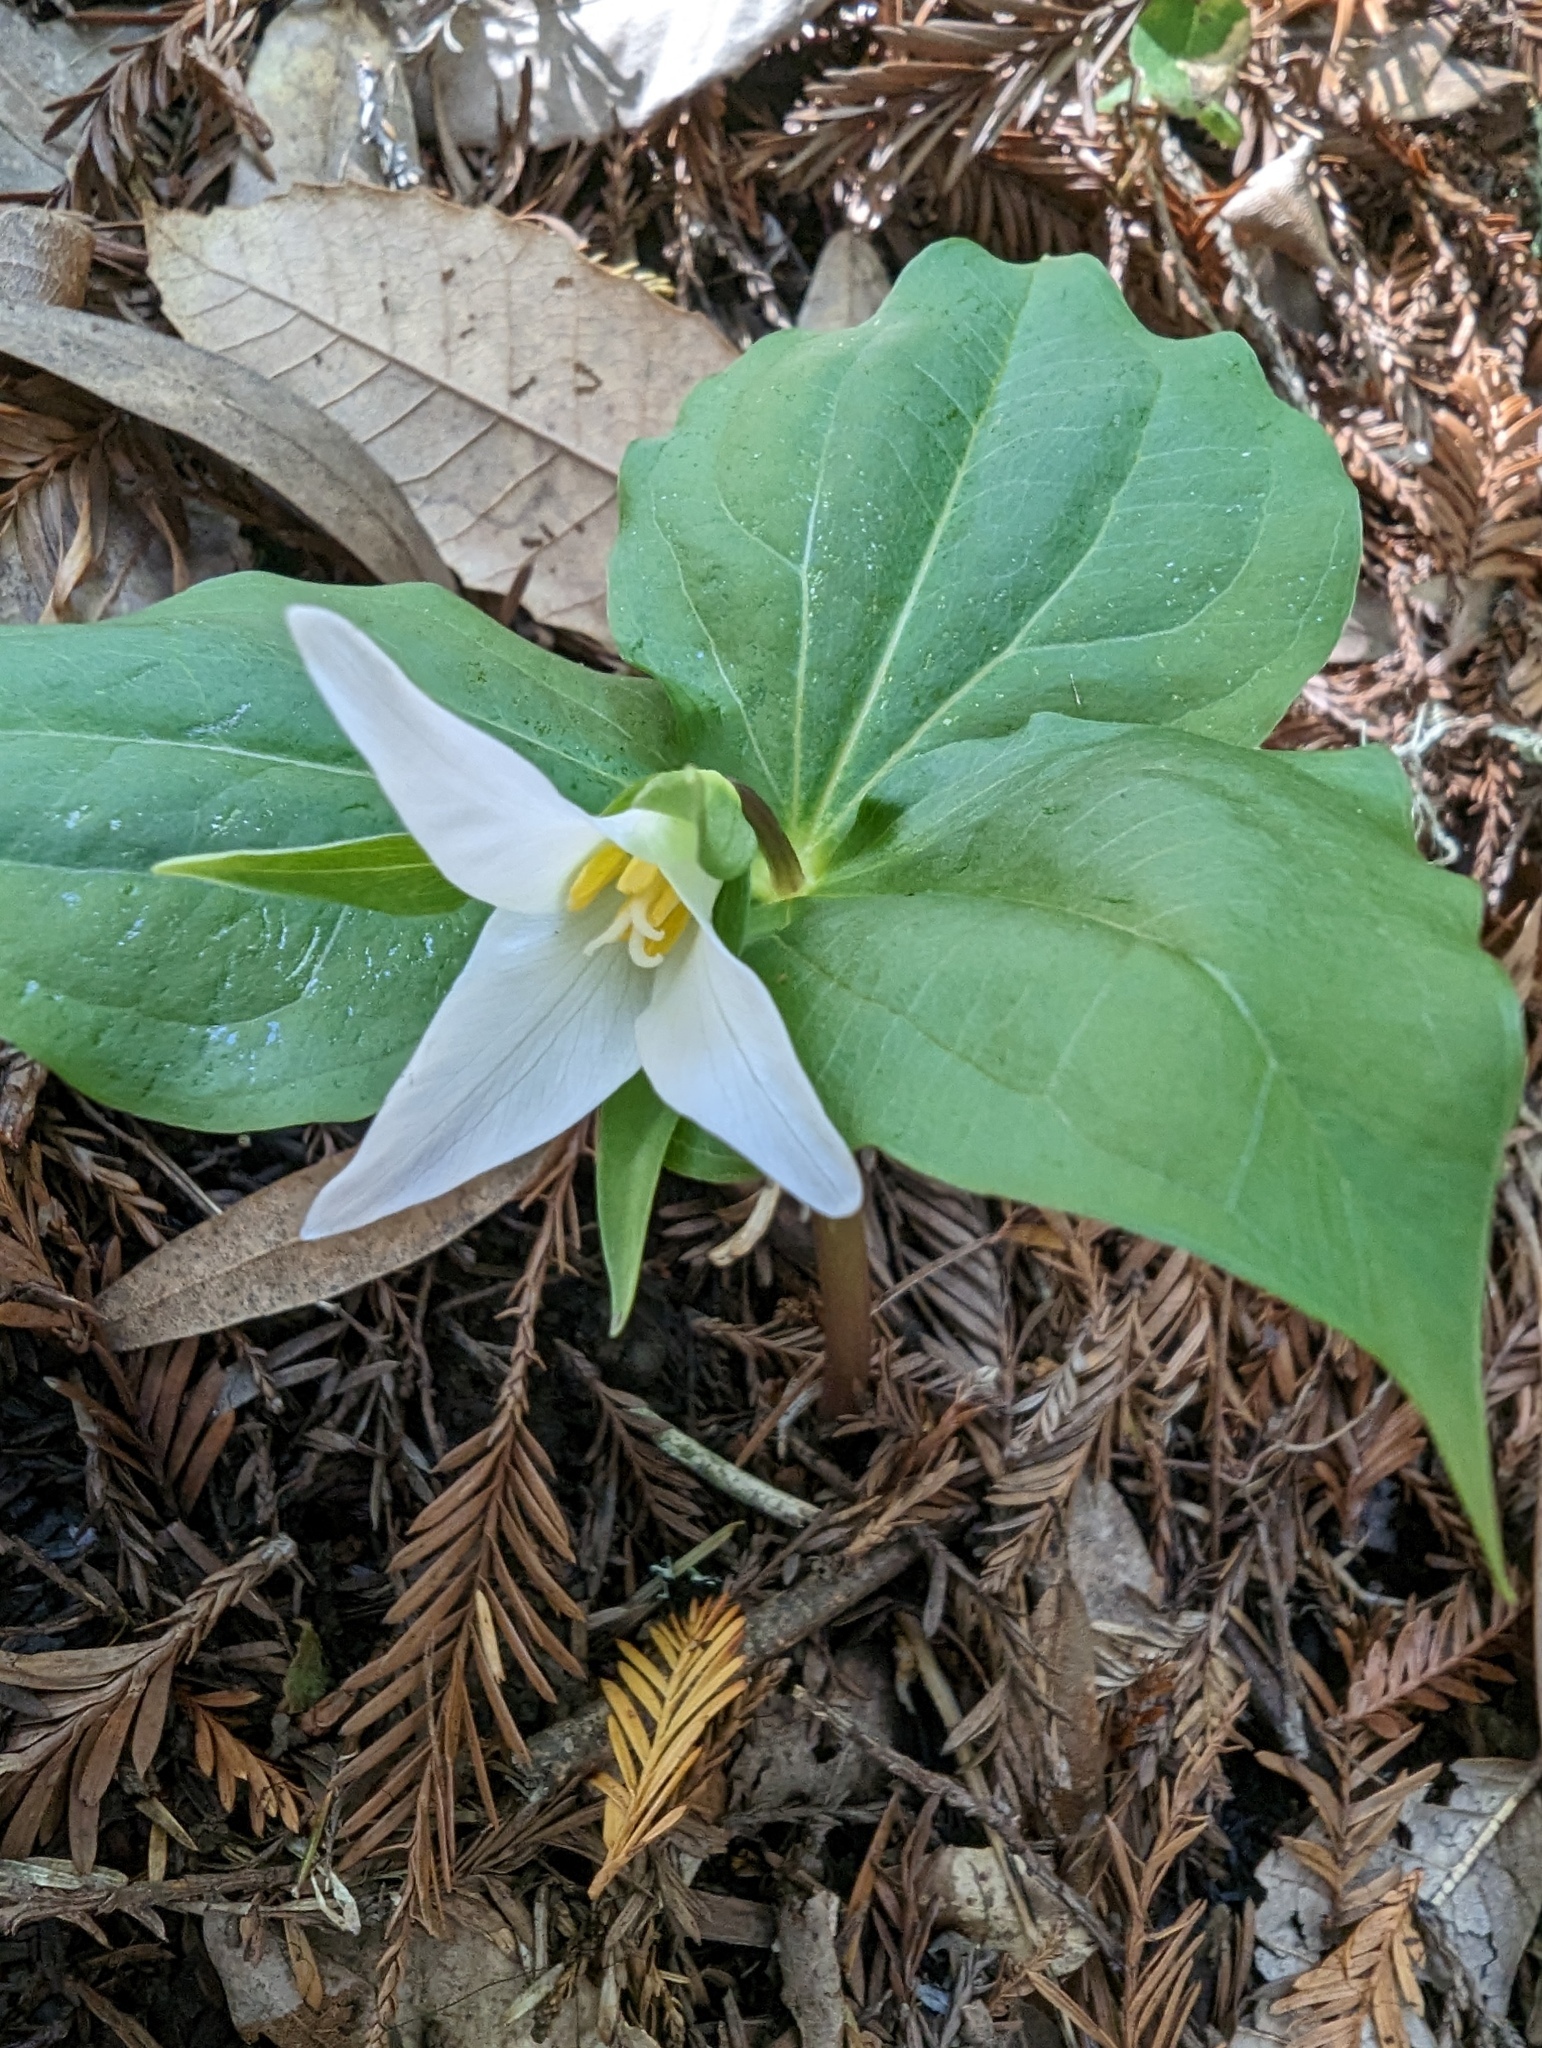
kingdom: Plantae
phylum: Tracheophyta
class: Liliopsida
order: Liliales
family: Melanthiaceae
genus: Trillium
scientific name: Trillium ovatum
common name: Pacific trillium
